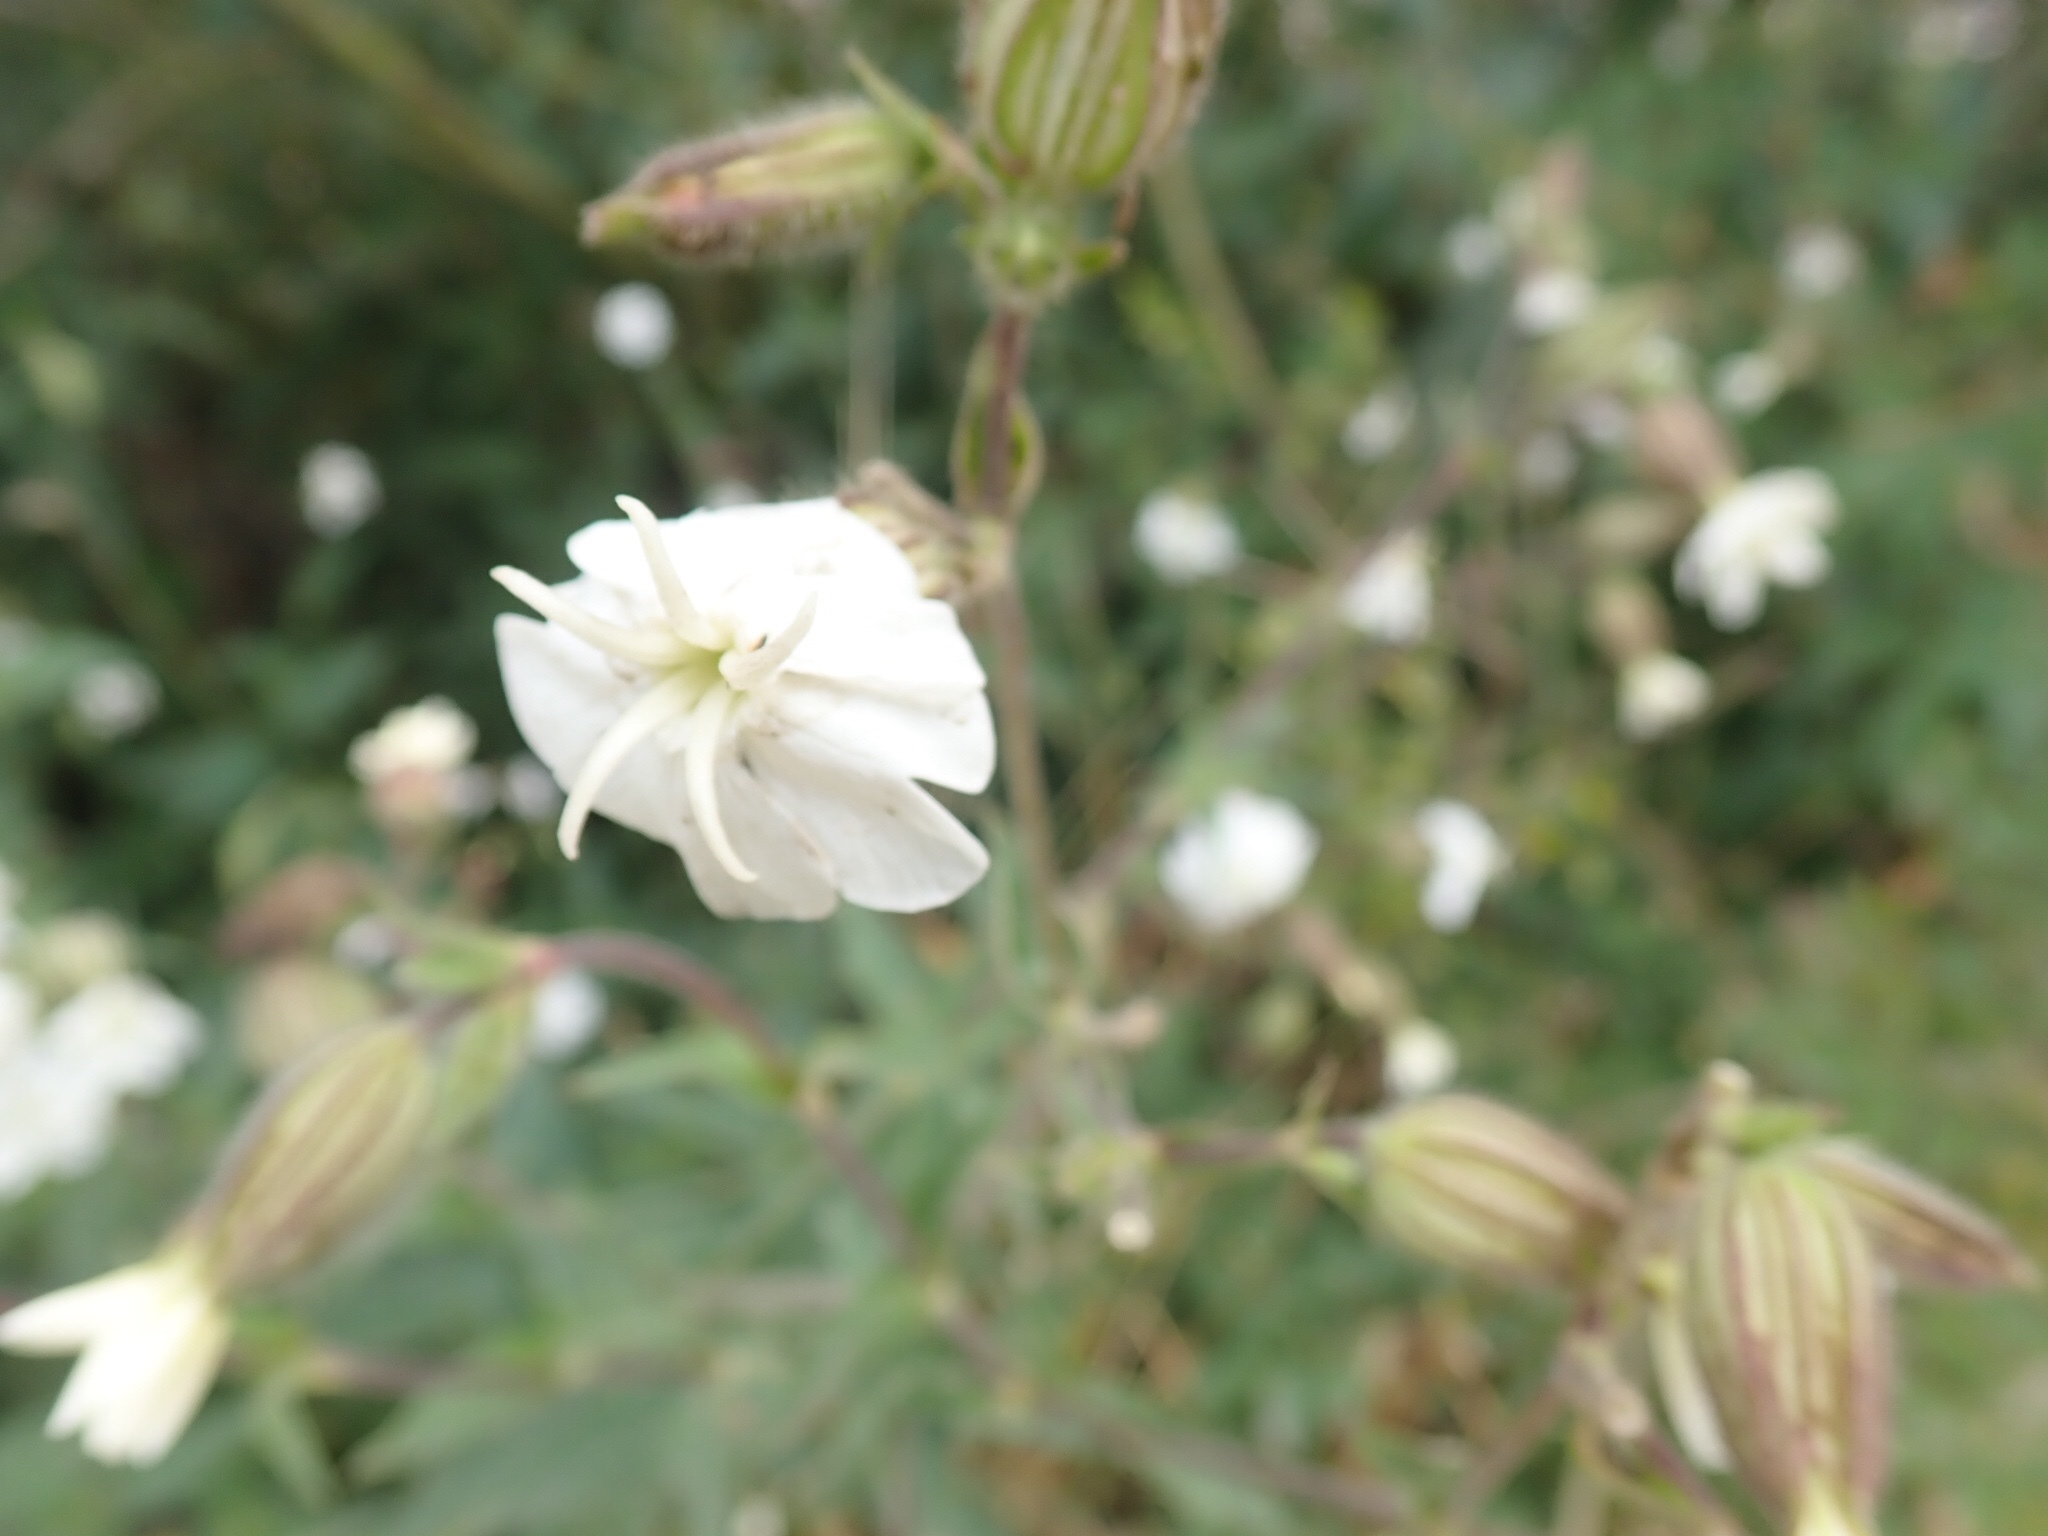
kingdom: Plantae
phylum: Tracheophyta
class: Magnoliopsida
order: Caryophyllales
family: Caryophyllaceae
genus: Silene
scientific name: Silene latifolia
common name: White campion
